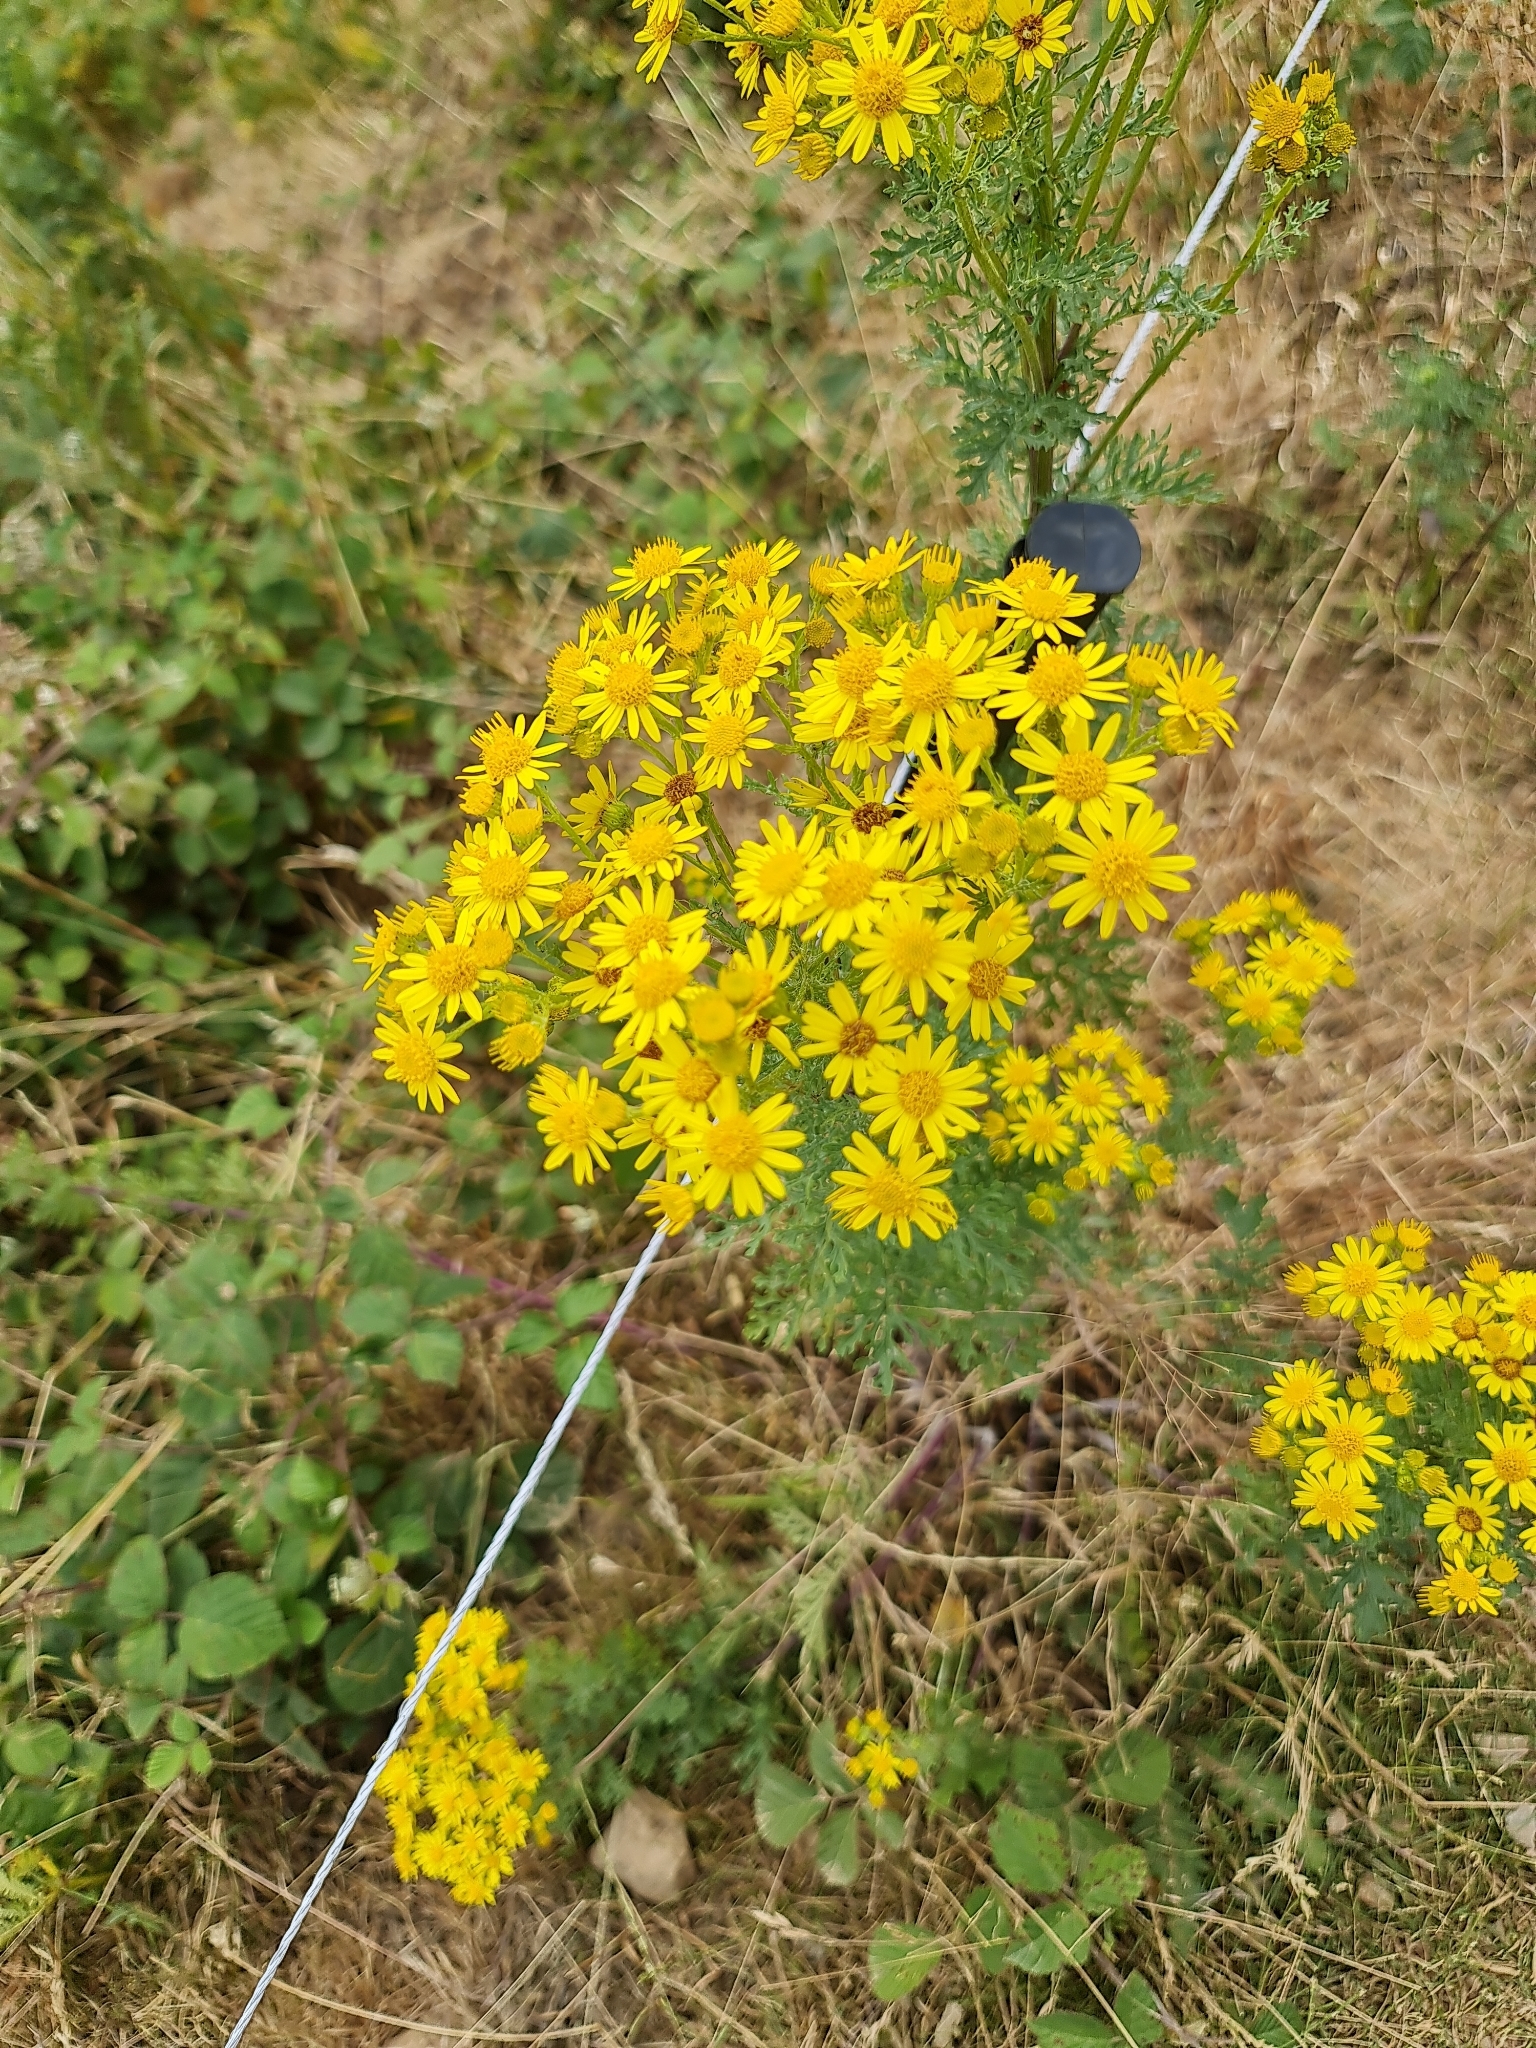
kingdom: Plantae
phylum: Tracheophyta
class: Magnoliopsida
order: Asterales
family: Asteraceae
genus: Jacobaea
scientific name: Jacobaea vulgaris
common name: Stinking willie
